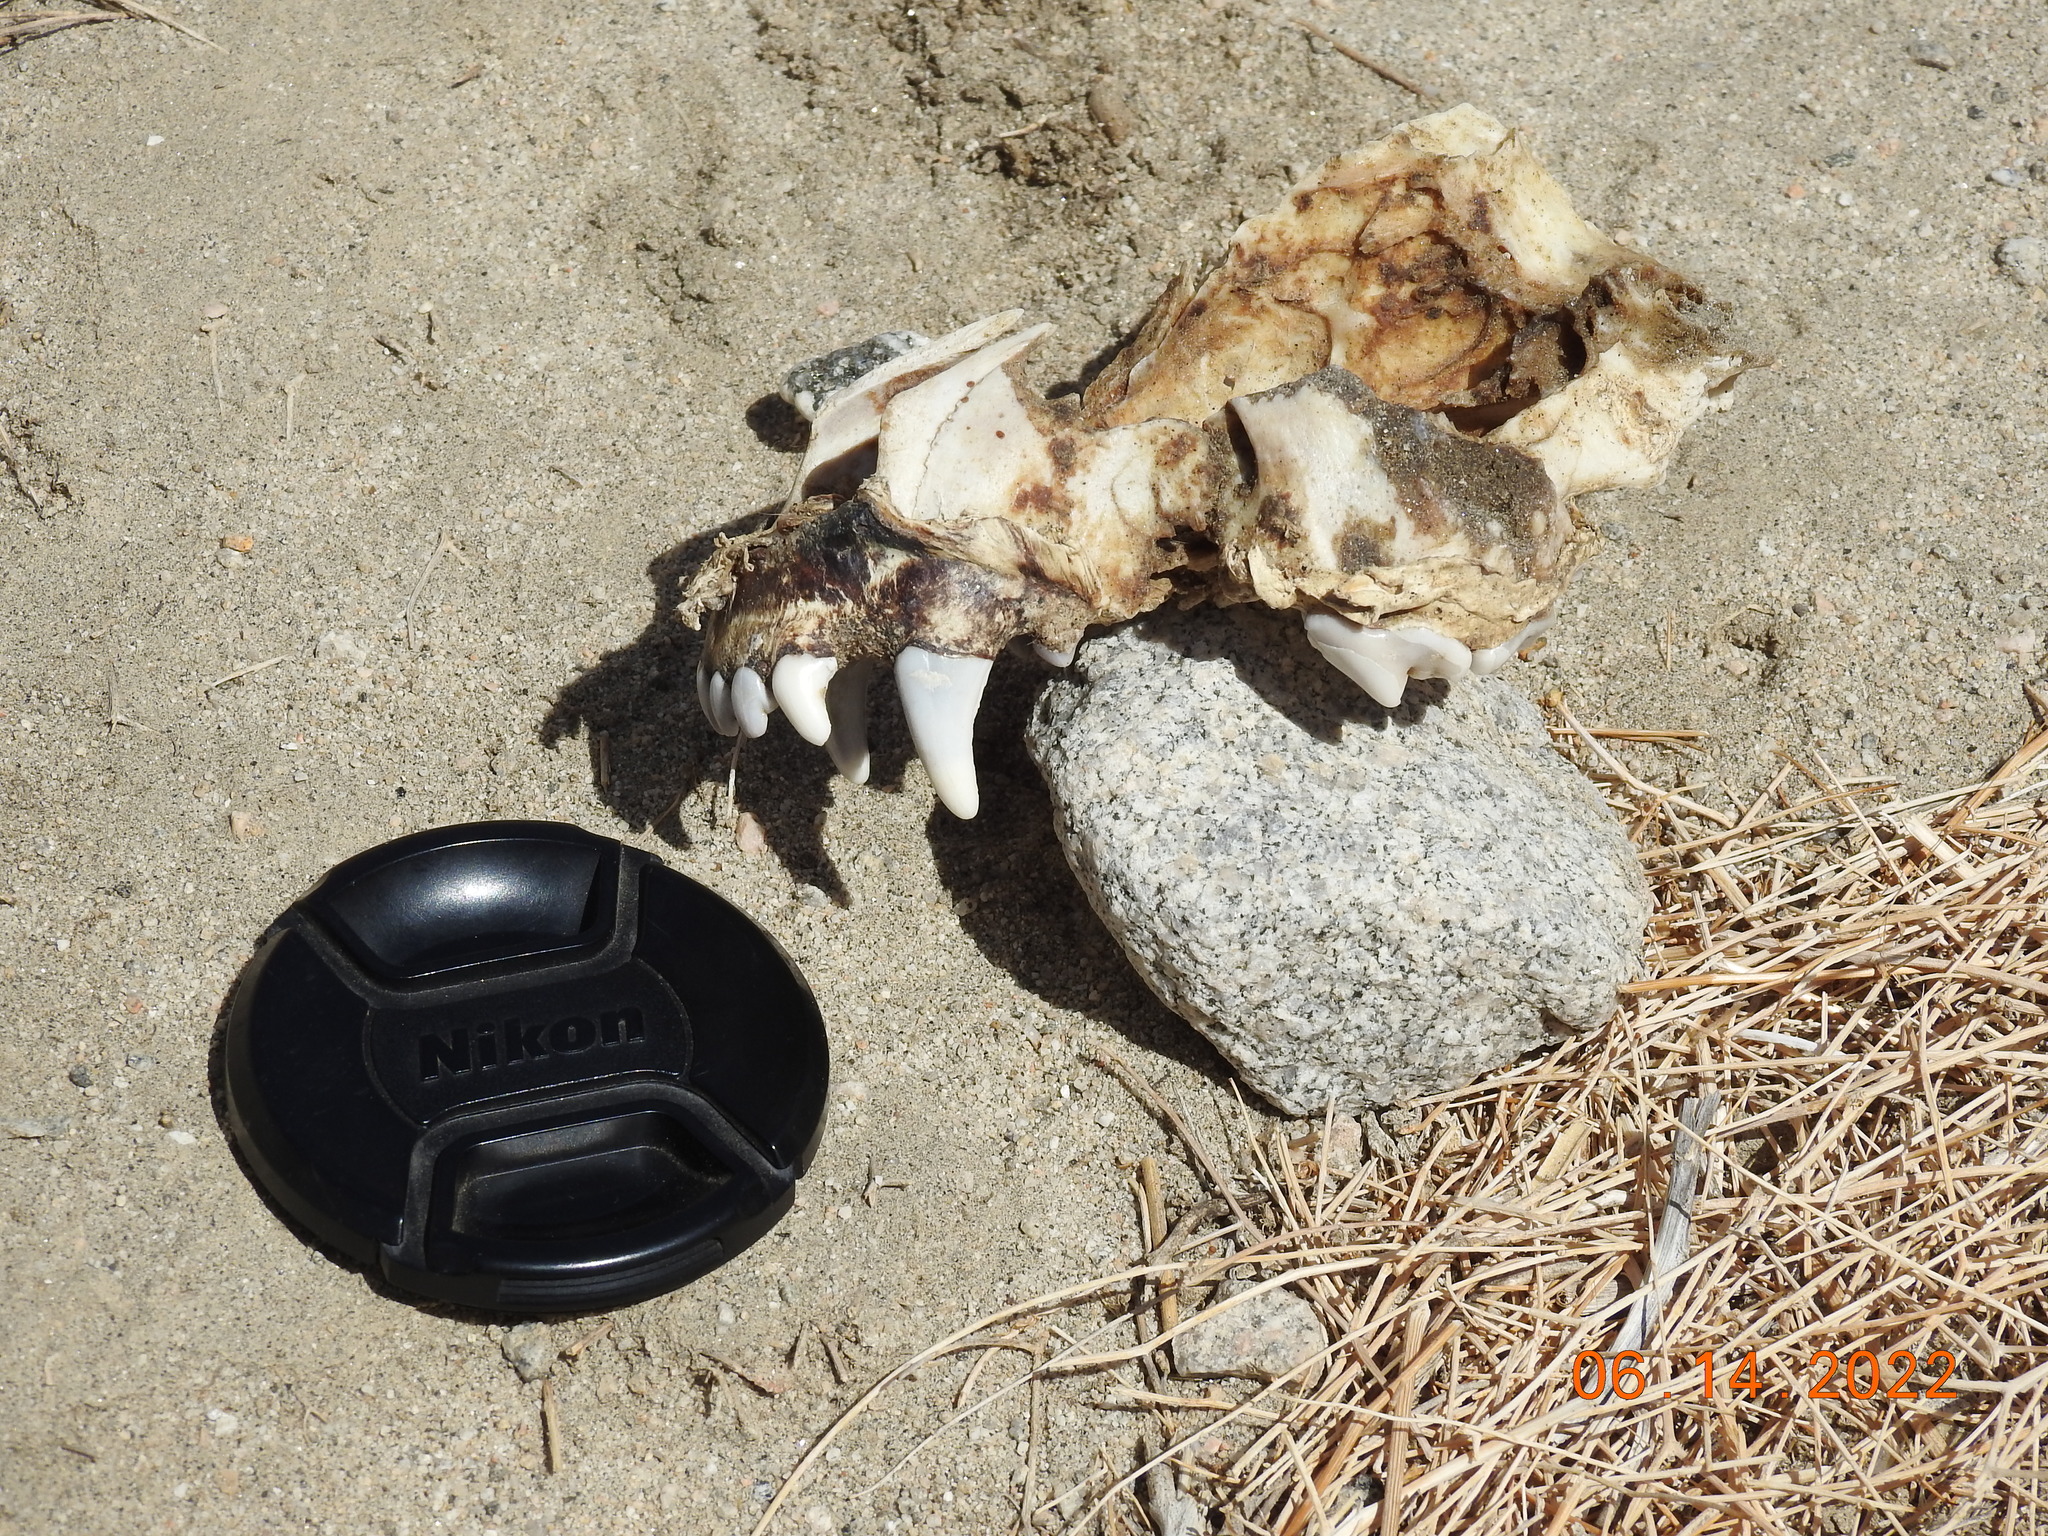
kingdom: Animalia
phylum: Chordata
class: Mammalia
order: Carnivora
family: Canidae
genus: Canis
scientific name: Canis lupus
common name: Gray wolf
